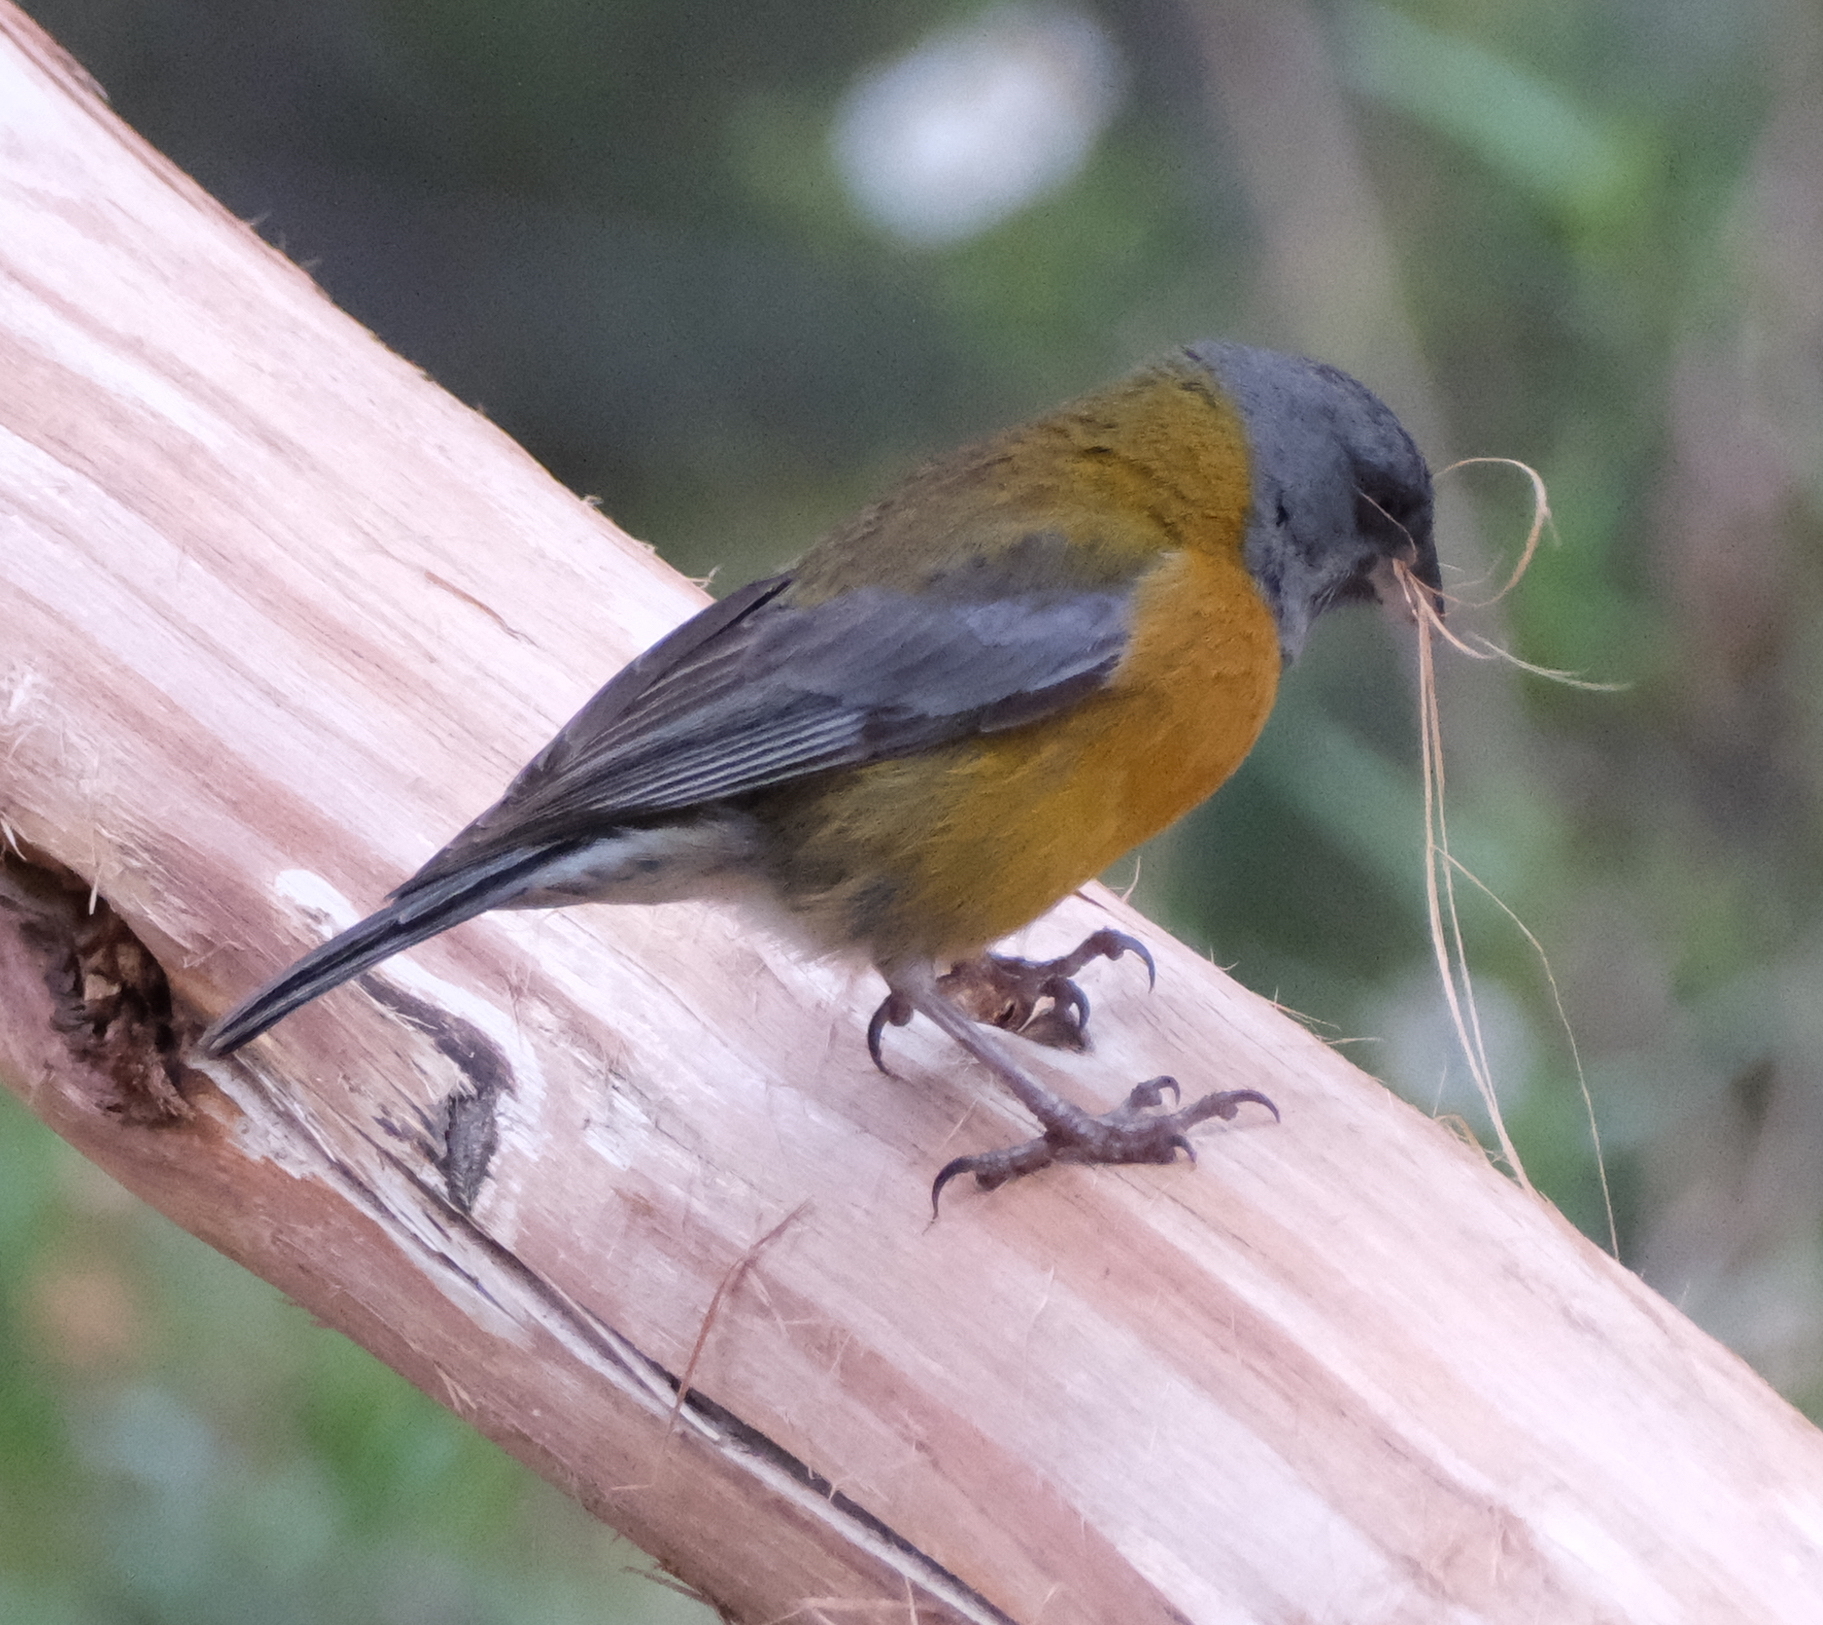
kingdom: Animalia
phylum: Chordata
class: Aves
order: Passeriformes
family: Thraupidae
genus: Phrygilus
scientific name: Phrygilus punensis
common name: Peruvian sierra finch
